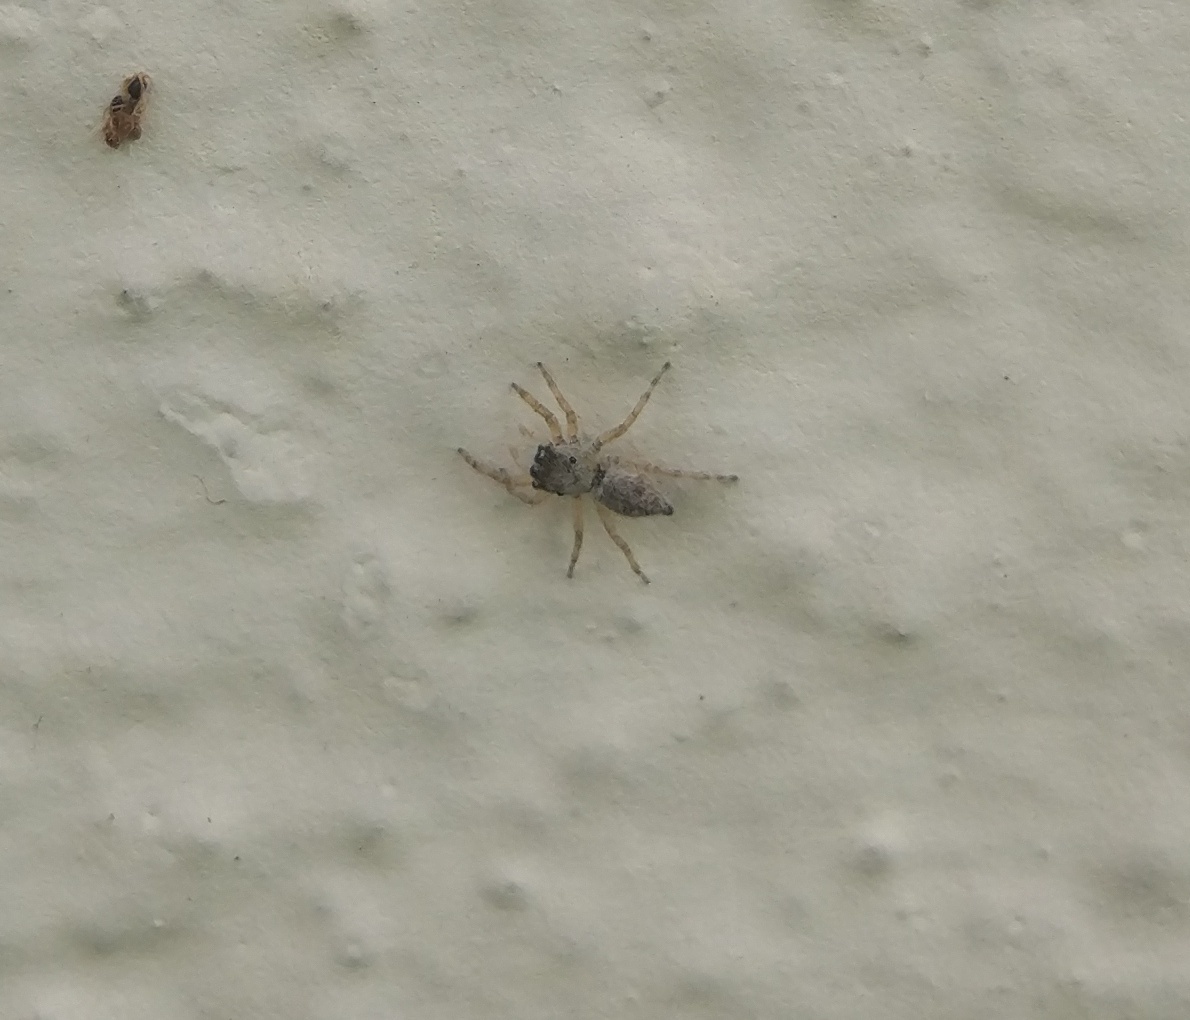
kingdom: Animalia
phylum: Arthropoda
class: Arachnida
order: Araneae
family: Salticidae
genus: Menemerus
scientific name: Menemerus marginatus
